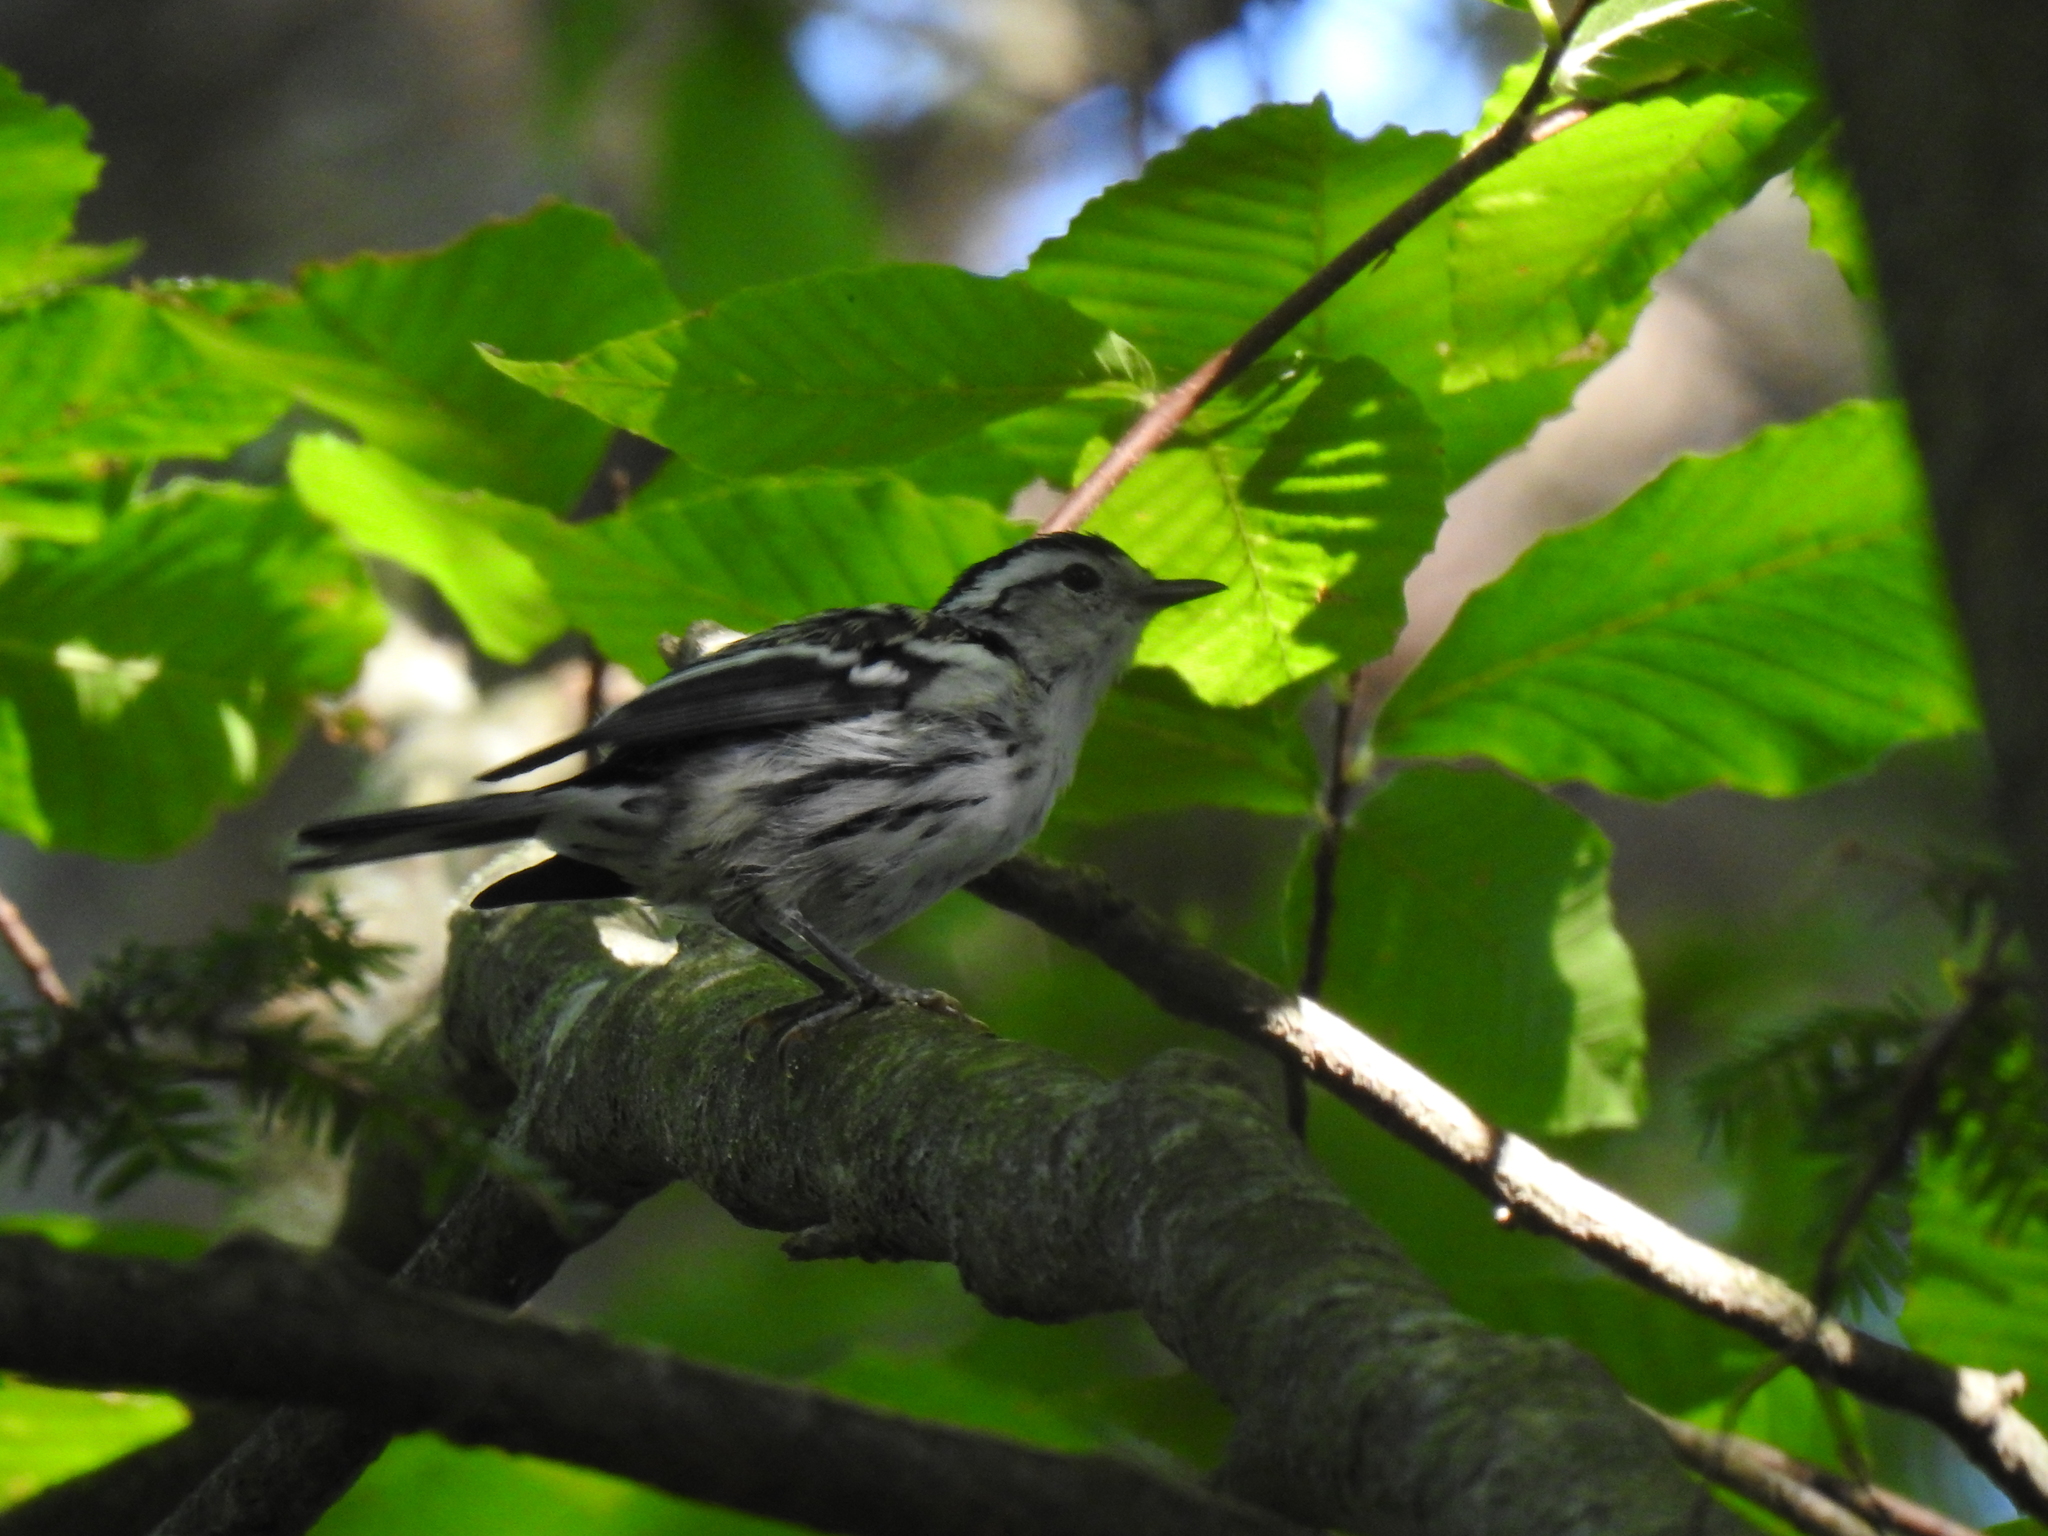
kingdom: Animalia
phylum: Chordata
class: Aves
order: Passeriformes
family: Parulidae
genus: Mniotilta
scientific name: Mniotilta varia
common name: Black-and-white warbler
